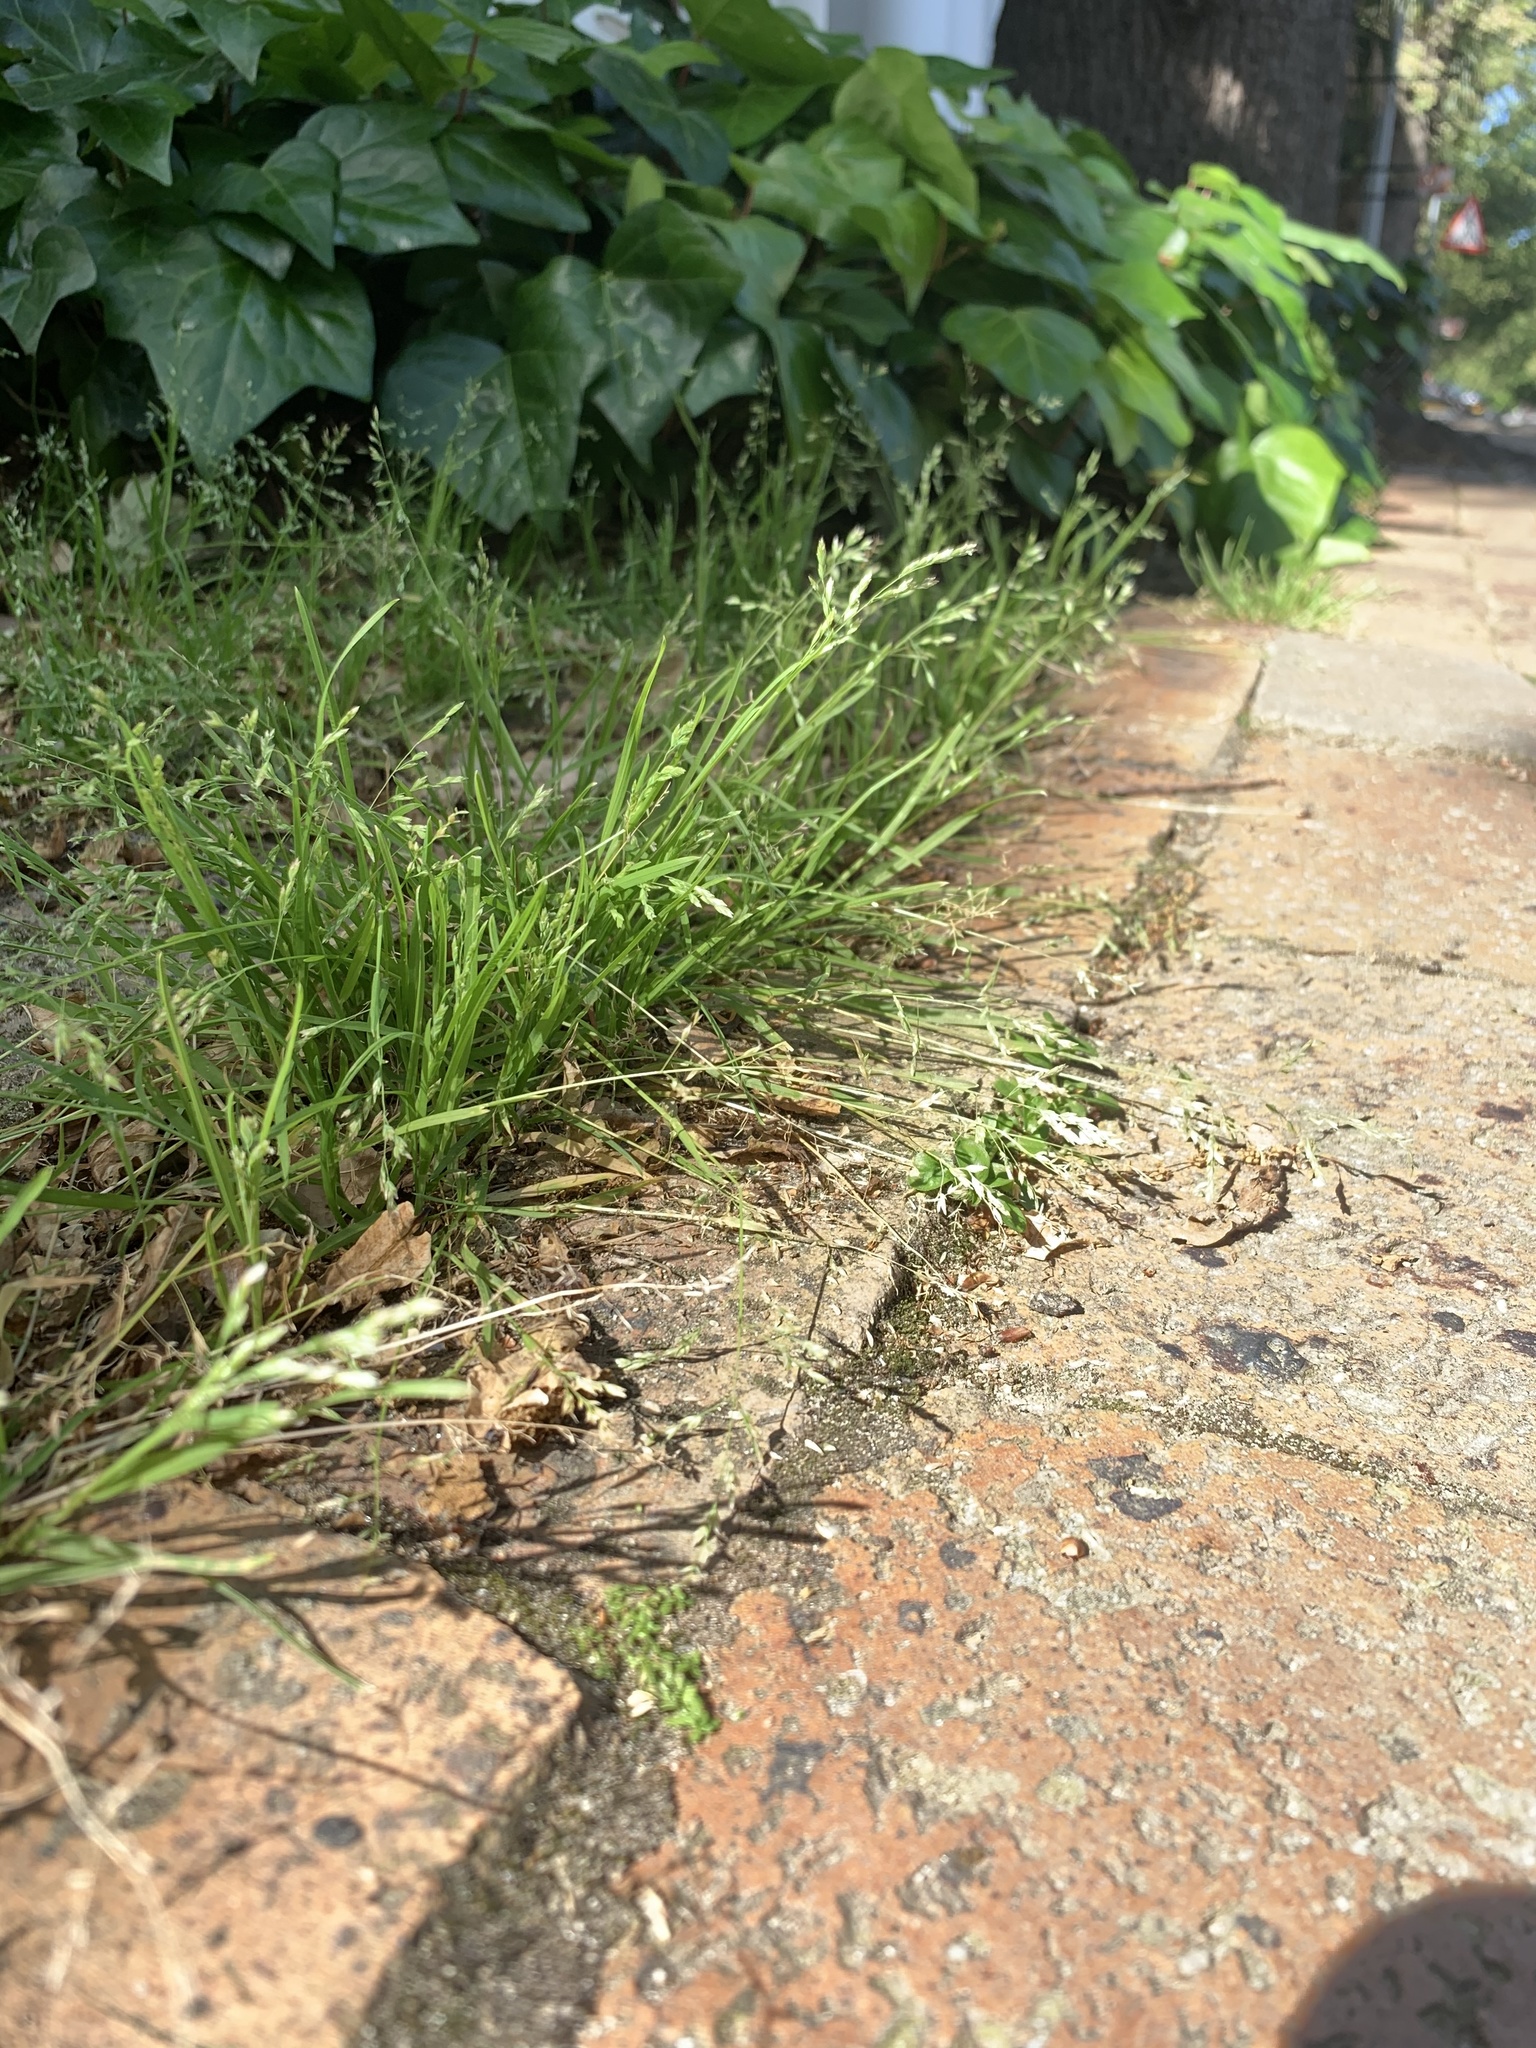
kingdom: Plantae
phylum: Tracheophyta
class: Liliopsida
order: Poales
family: Poaceae
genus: Poa
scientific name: Poa annua
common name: Annual bluegrass
